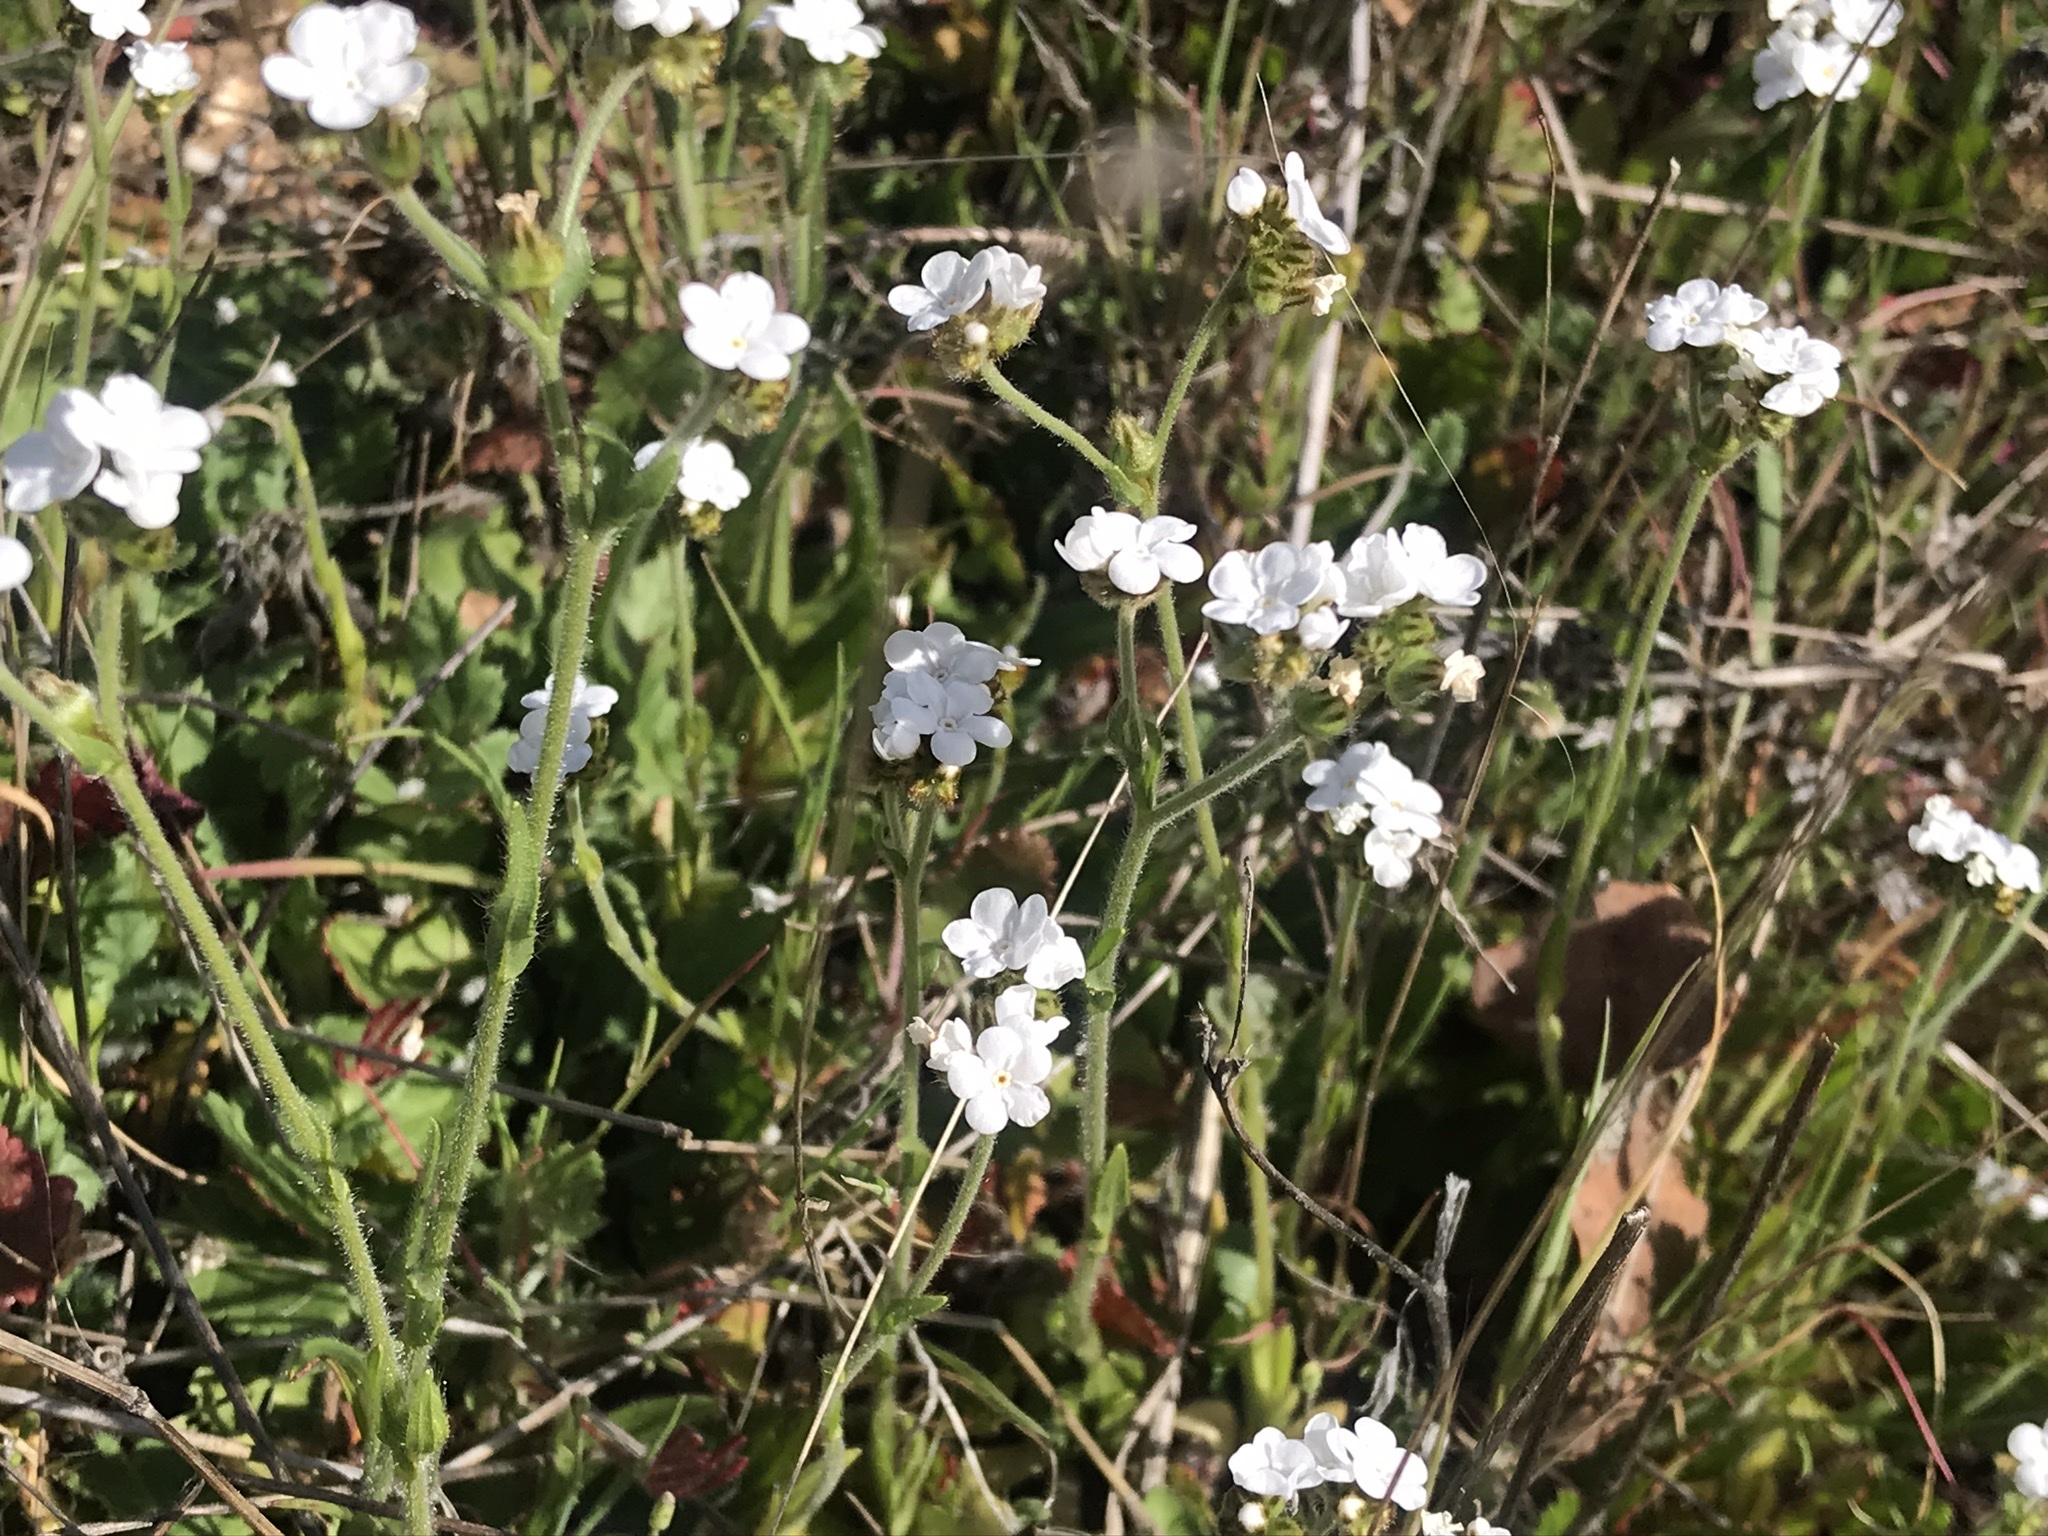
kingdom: Plantae
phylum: Tracheophyta
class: Magnoliopsida
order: Boraginales
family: Boraginaceae
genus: Plagiobothrys
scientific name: Plagiobothrys nothofulvus
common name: Popcorn-flower
